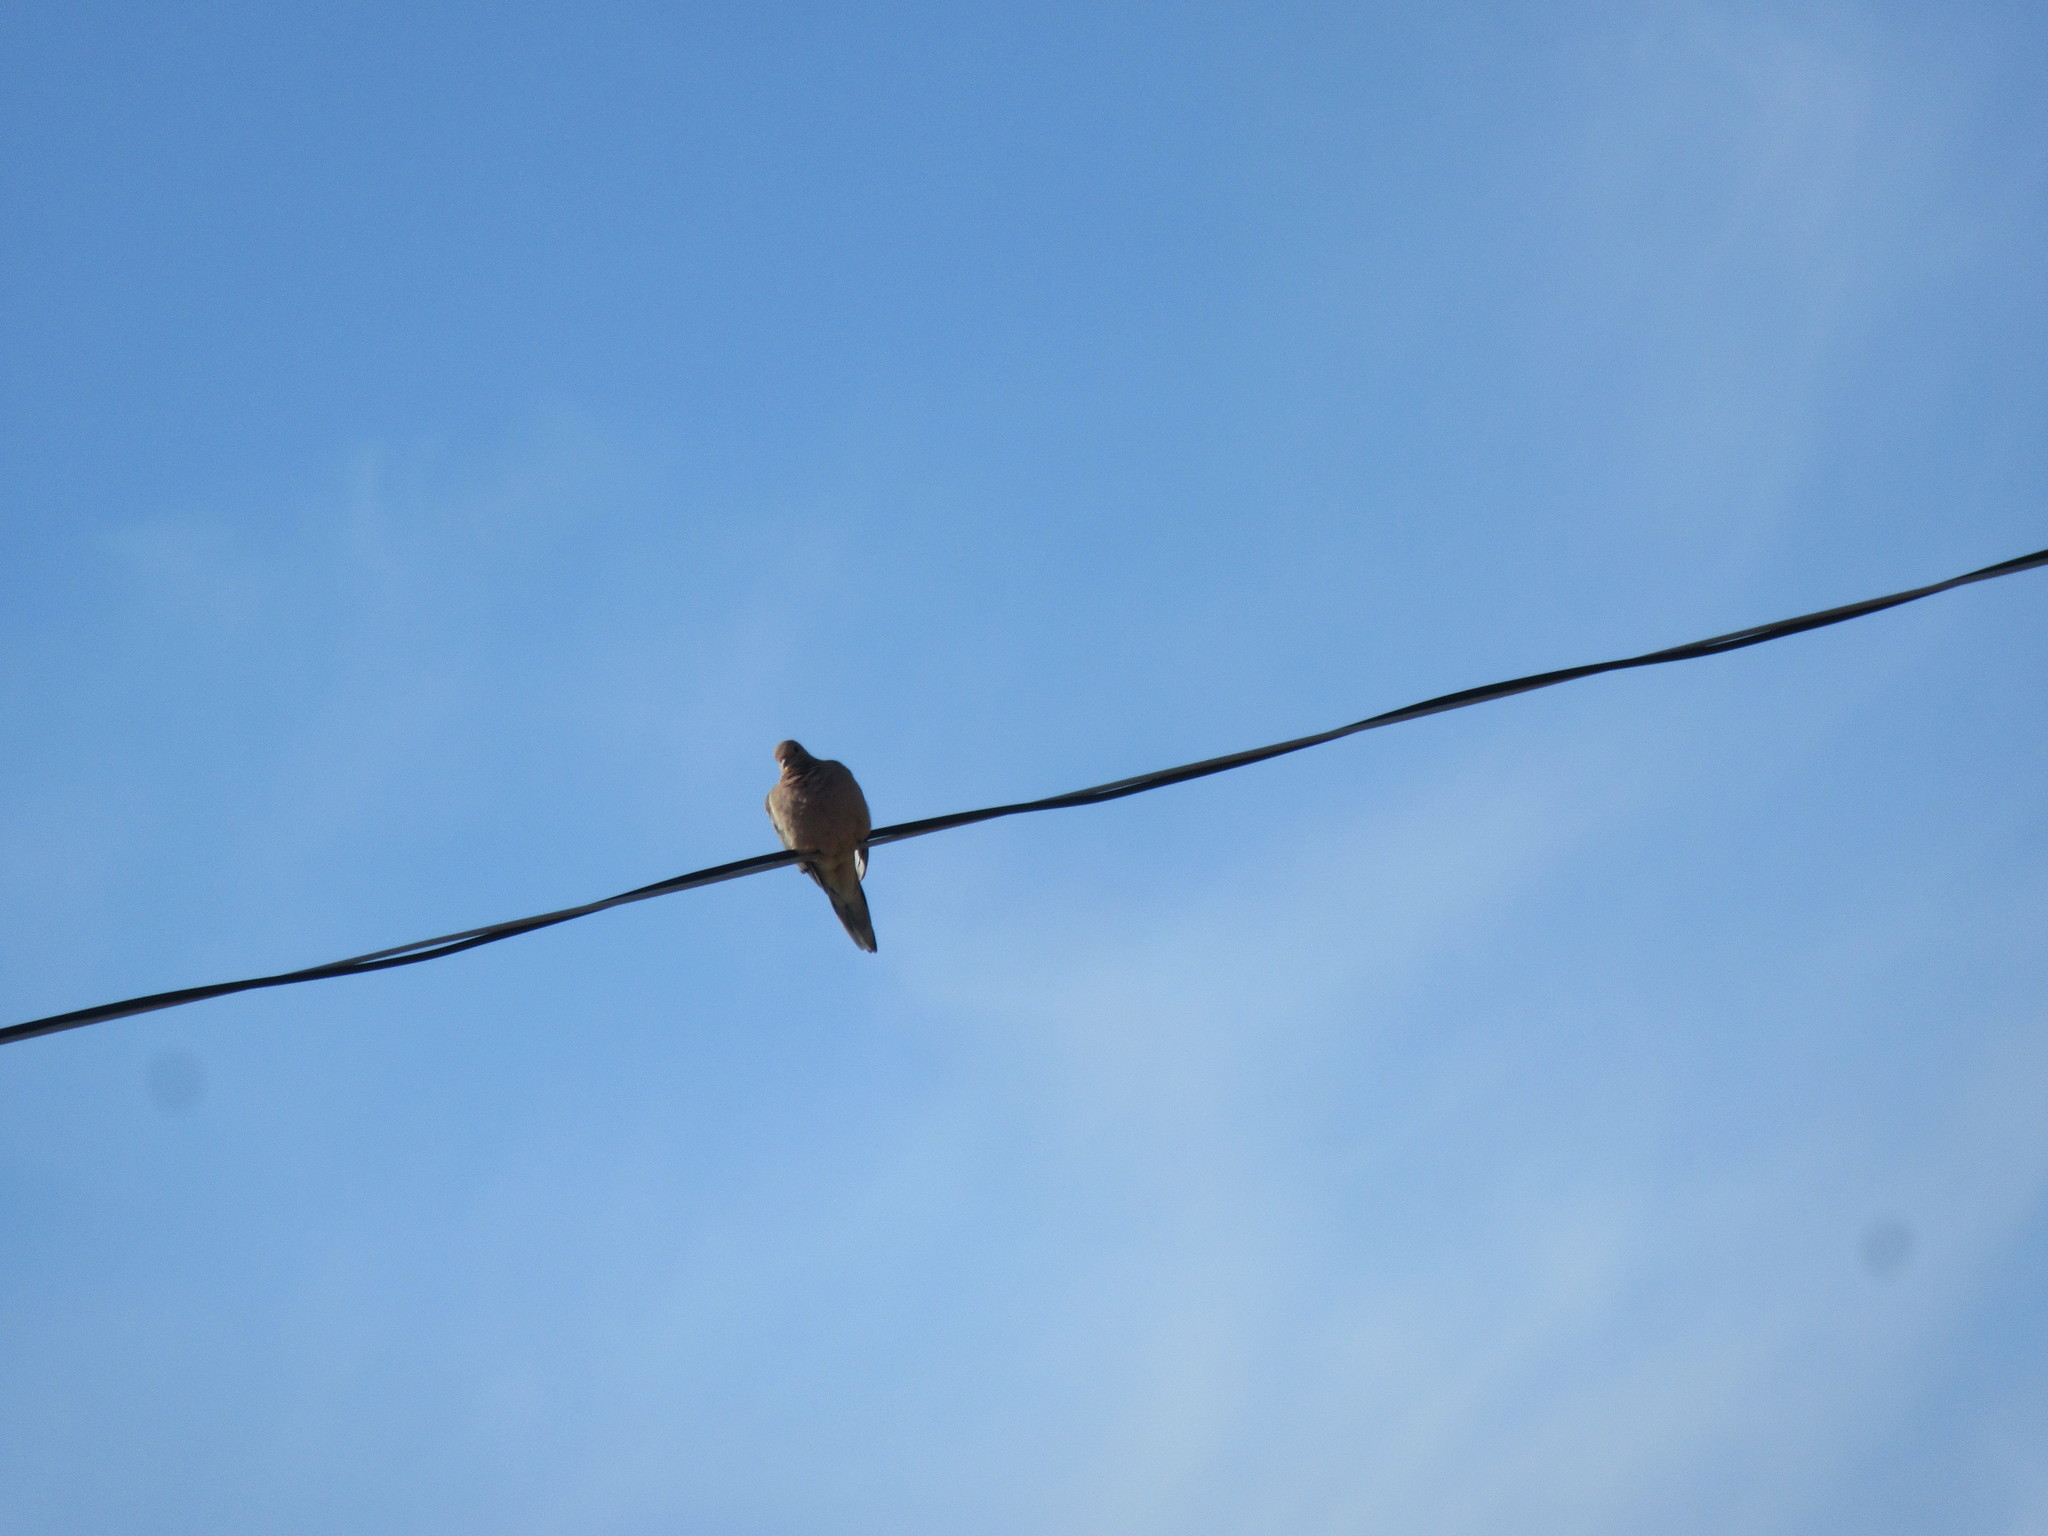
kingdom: Animalia
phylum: Chordata
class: Aves
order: Columbiformes
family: Columbidae
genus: Zenaida
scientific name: Zenaida macroura
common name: Mourning dove
